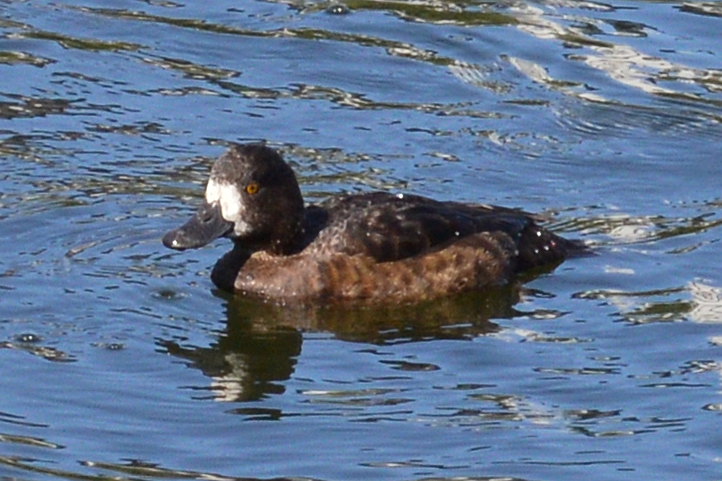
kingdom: Animalia
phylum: Chordata
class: Aves
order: Anseriformes
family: Anatidae
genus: Aythya
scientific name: Aythya fuligula
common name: Tufted duck
